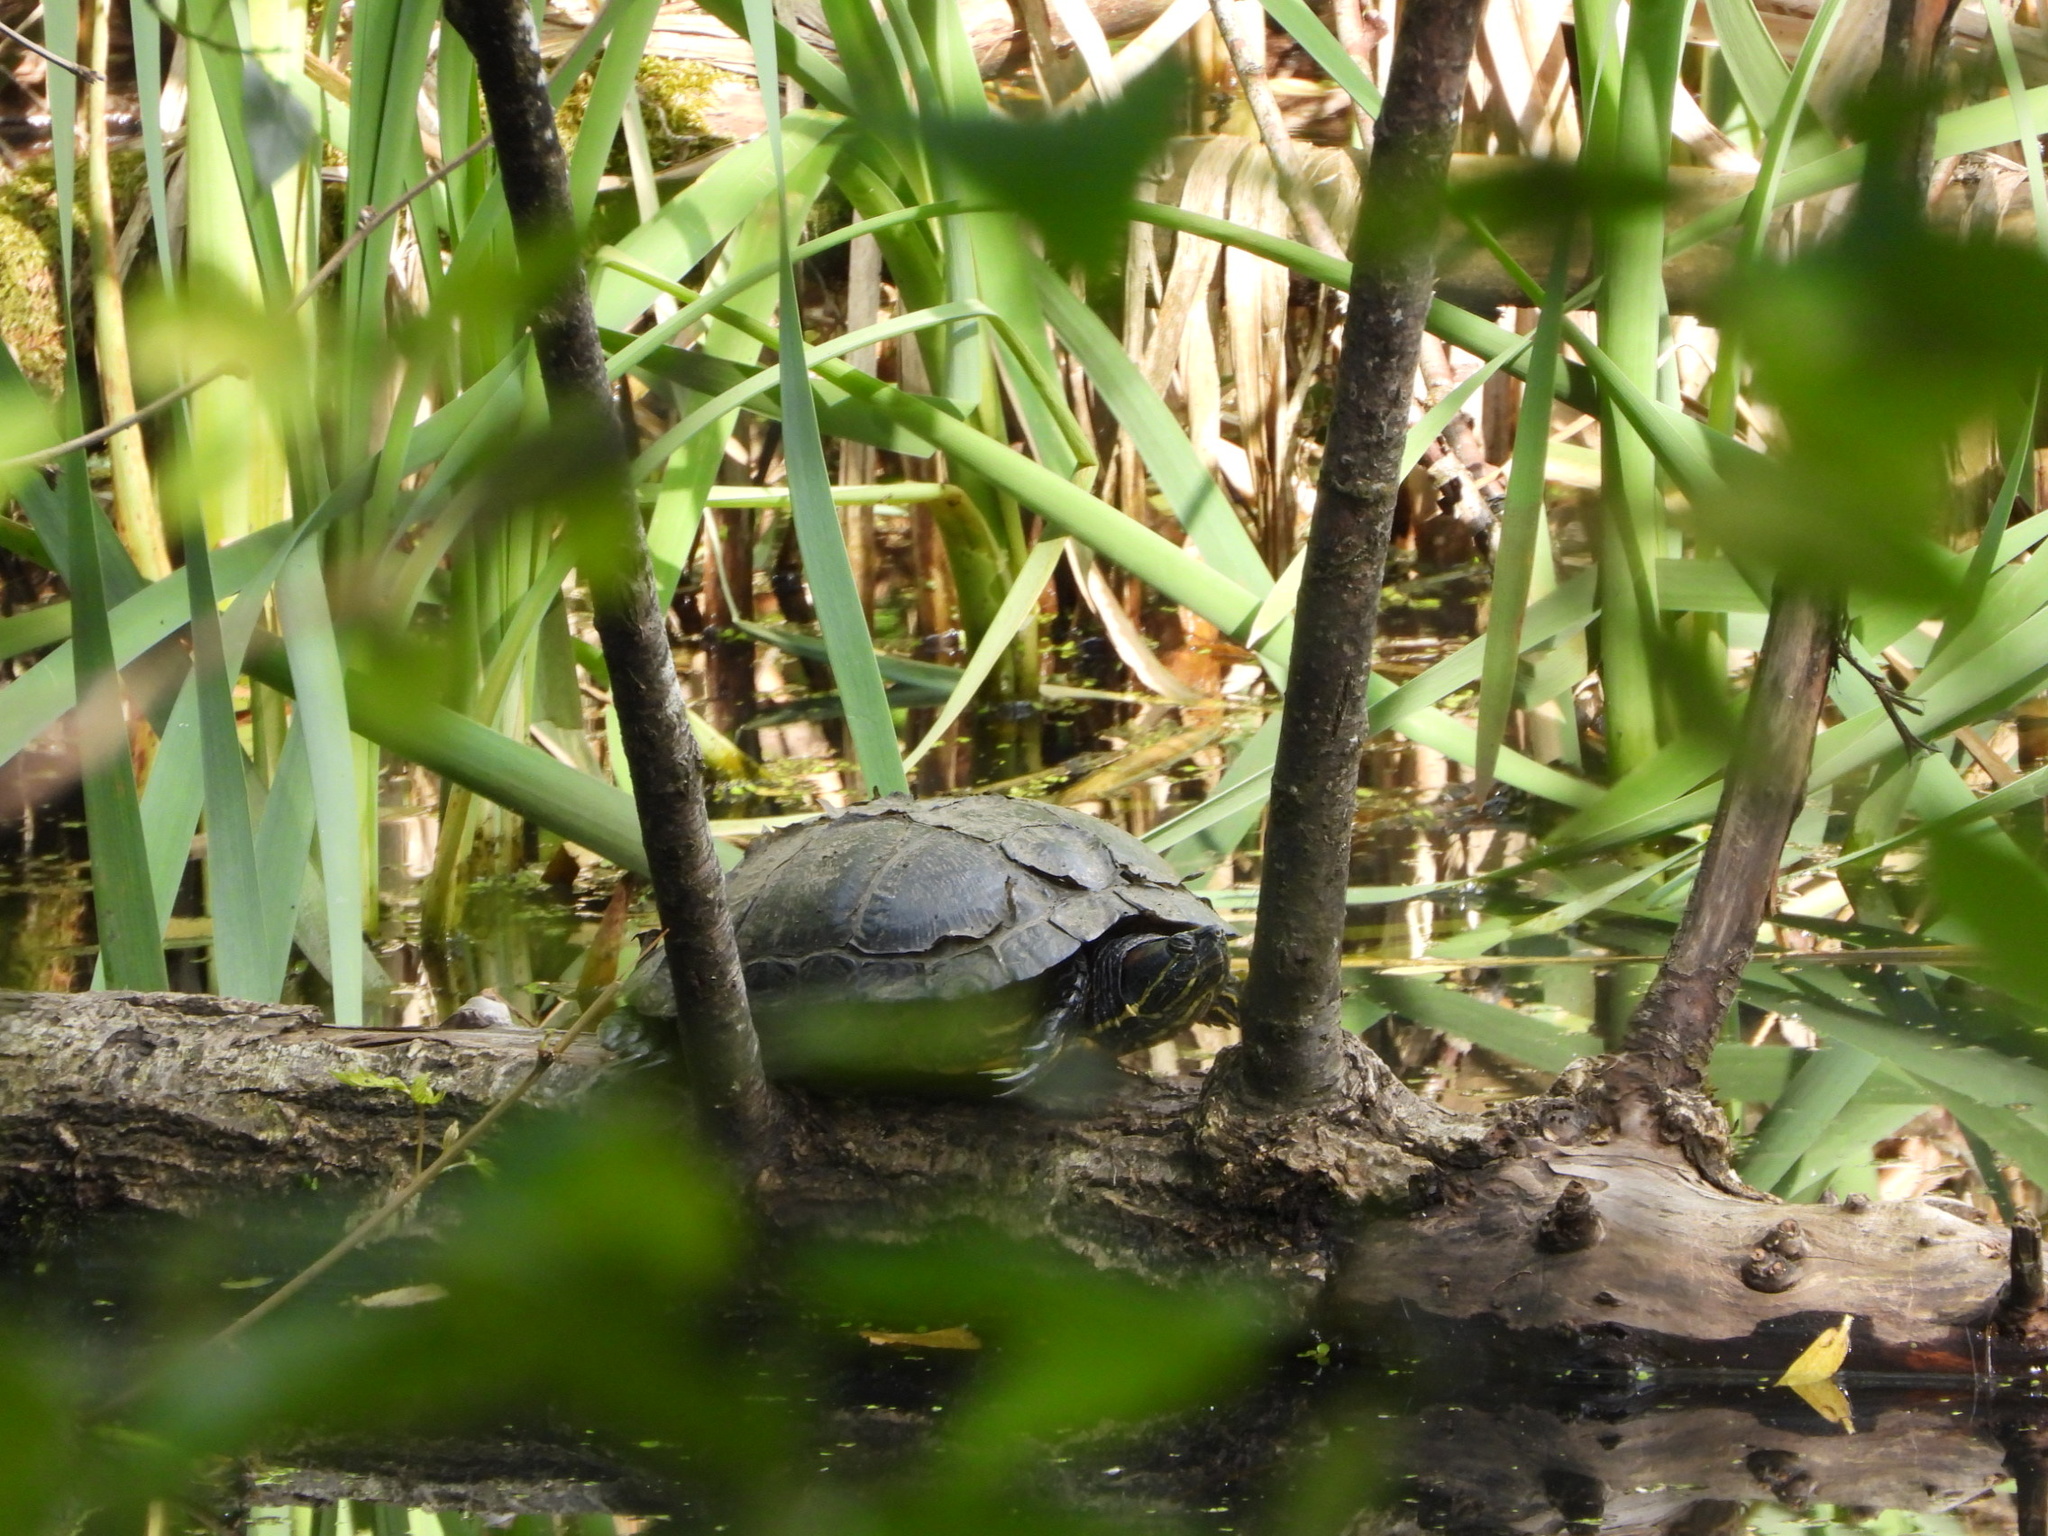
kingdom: Animalia
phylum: Chordata
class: Testudines
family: Emydidae
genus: Trachemys
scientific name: Trachemys scripta
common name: Slider
